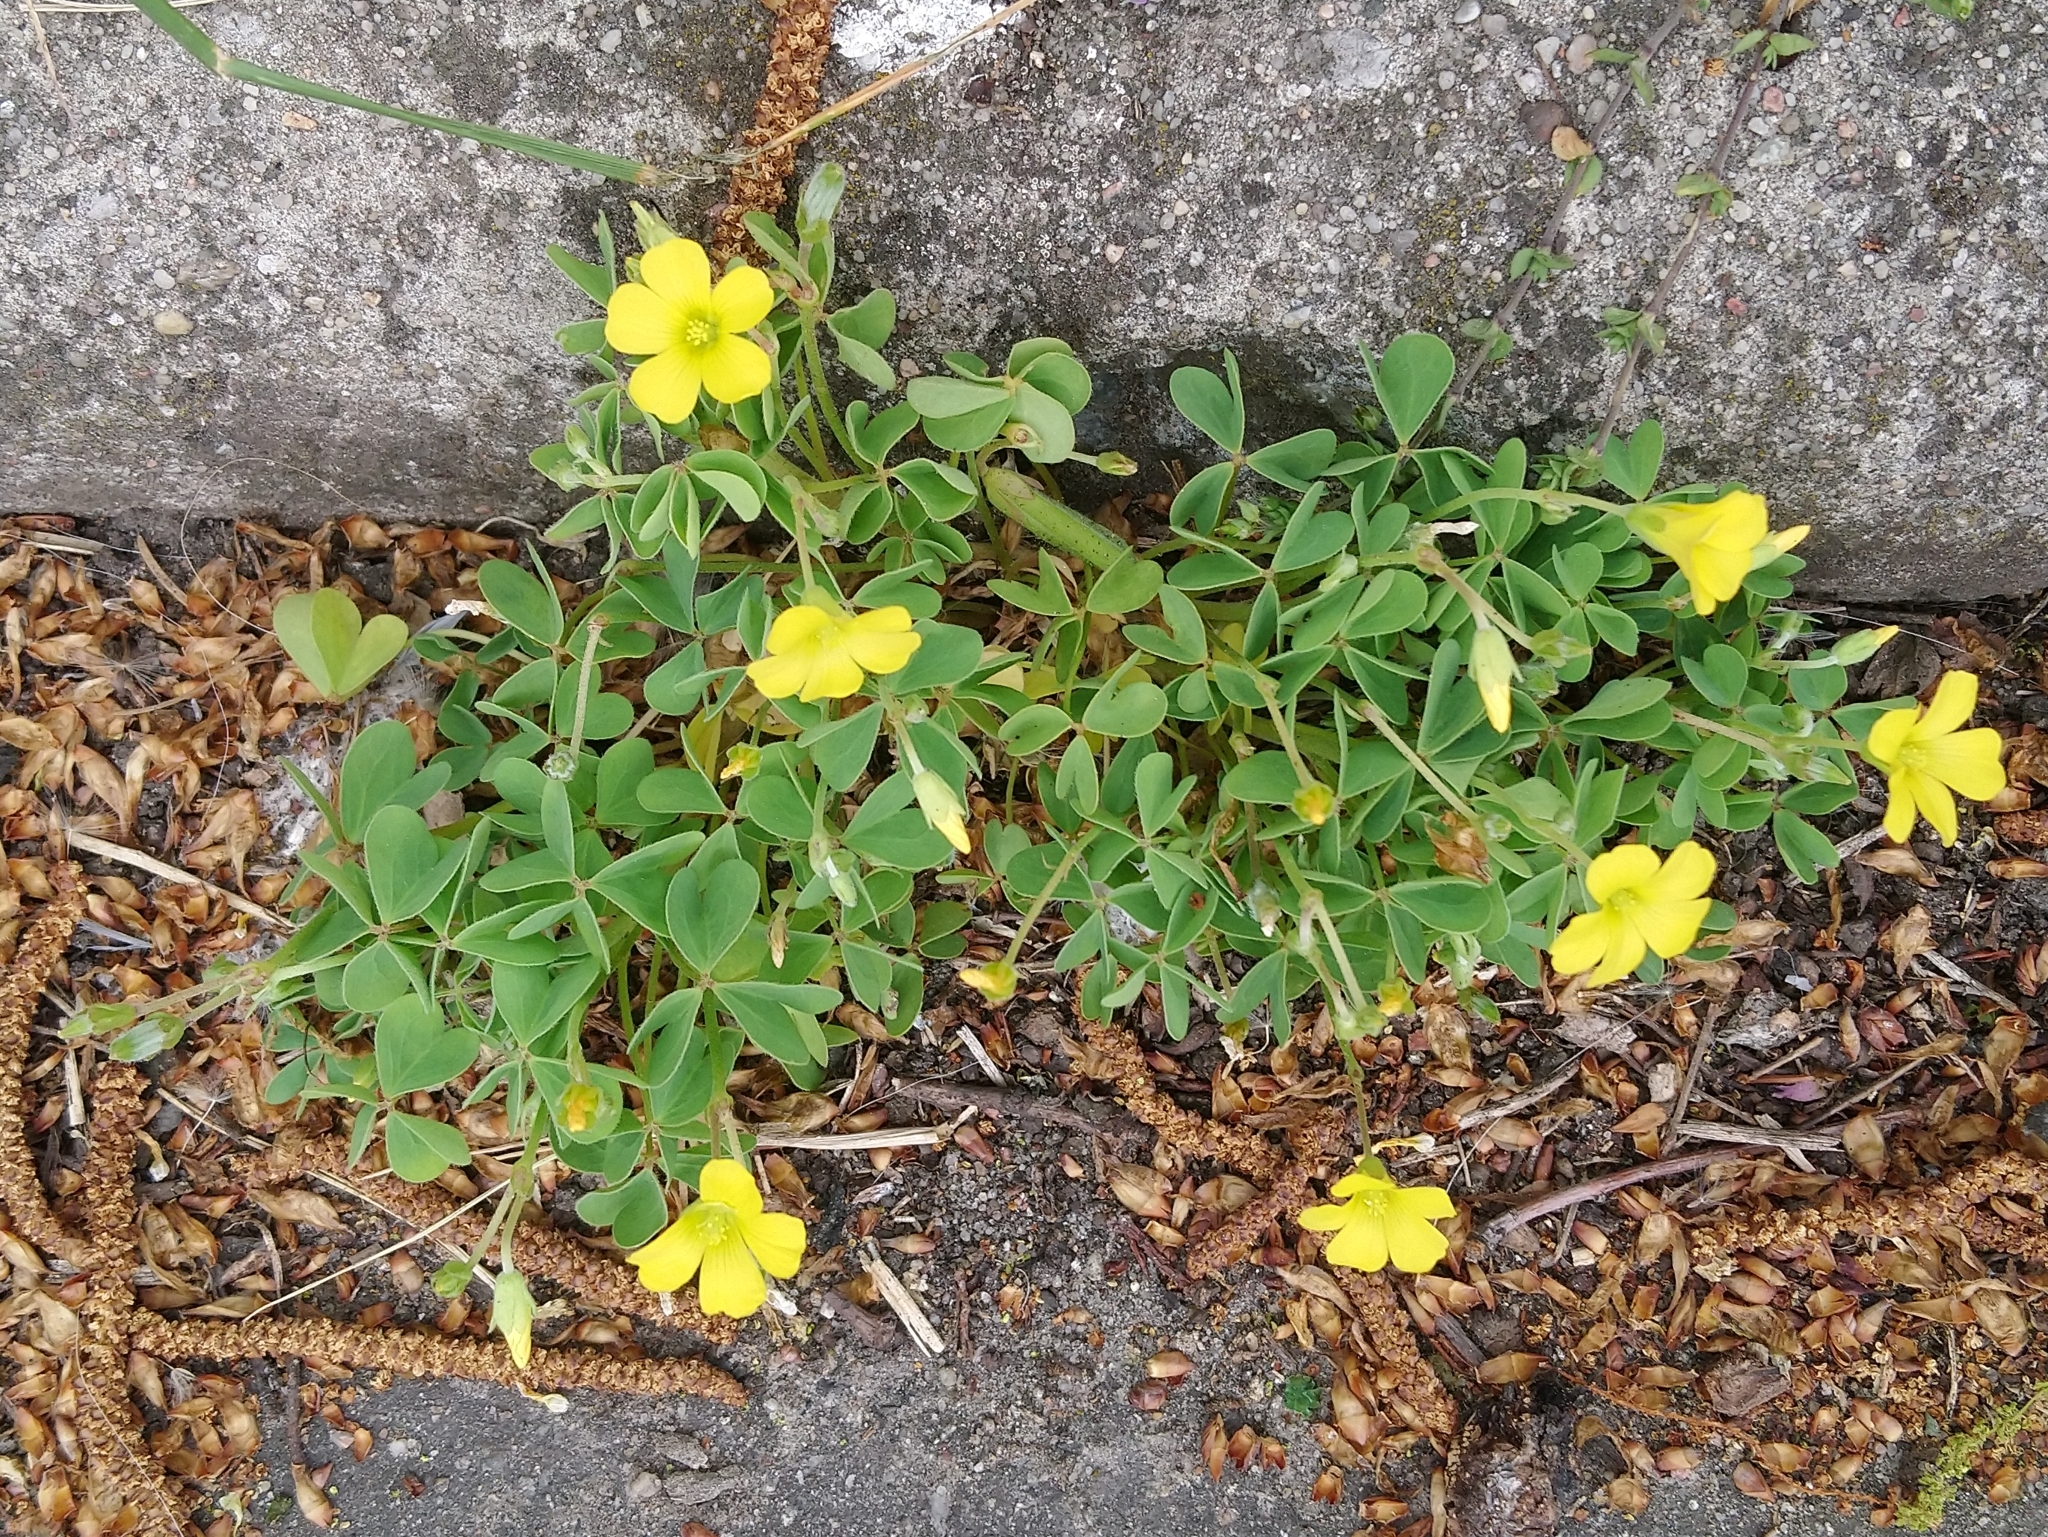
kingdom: Plantae
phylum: Tracheophyta
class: Magnoliopsida
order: Oxalidales
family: Oxalidaceae
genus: Oxalis
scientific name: Oxalis stricta
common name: Upright yellow-sorrel
